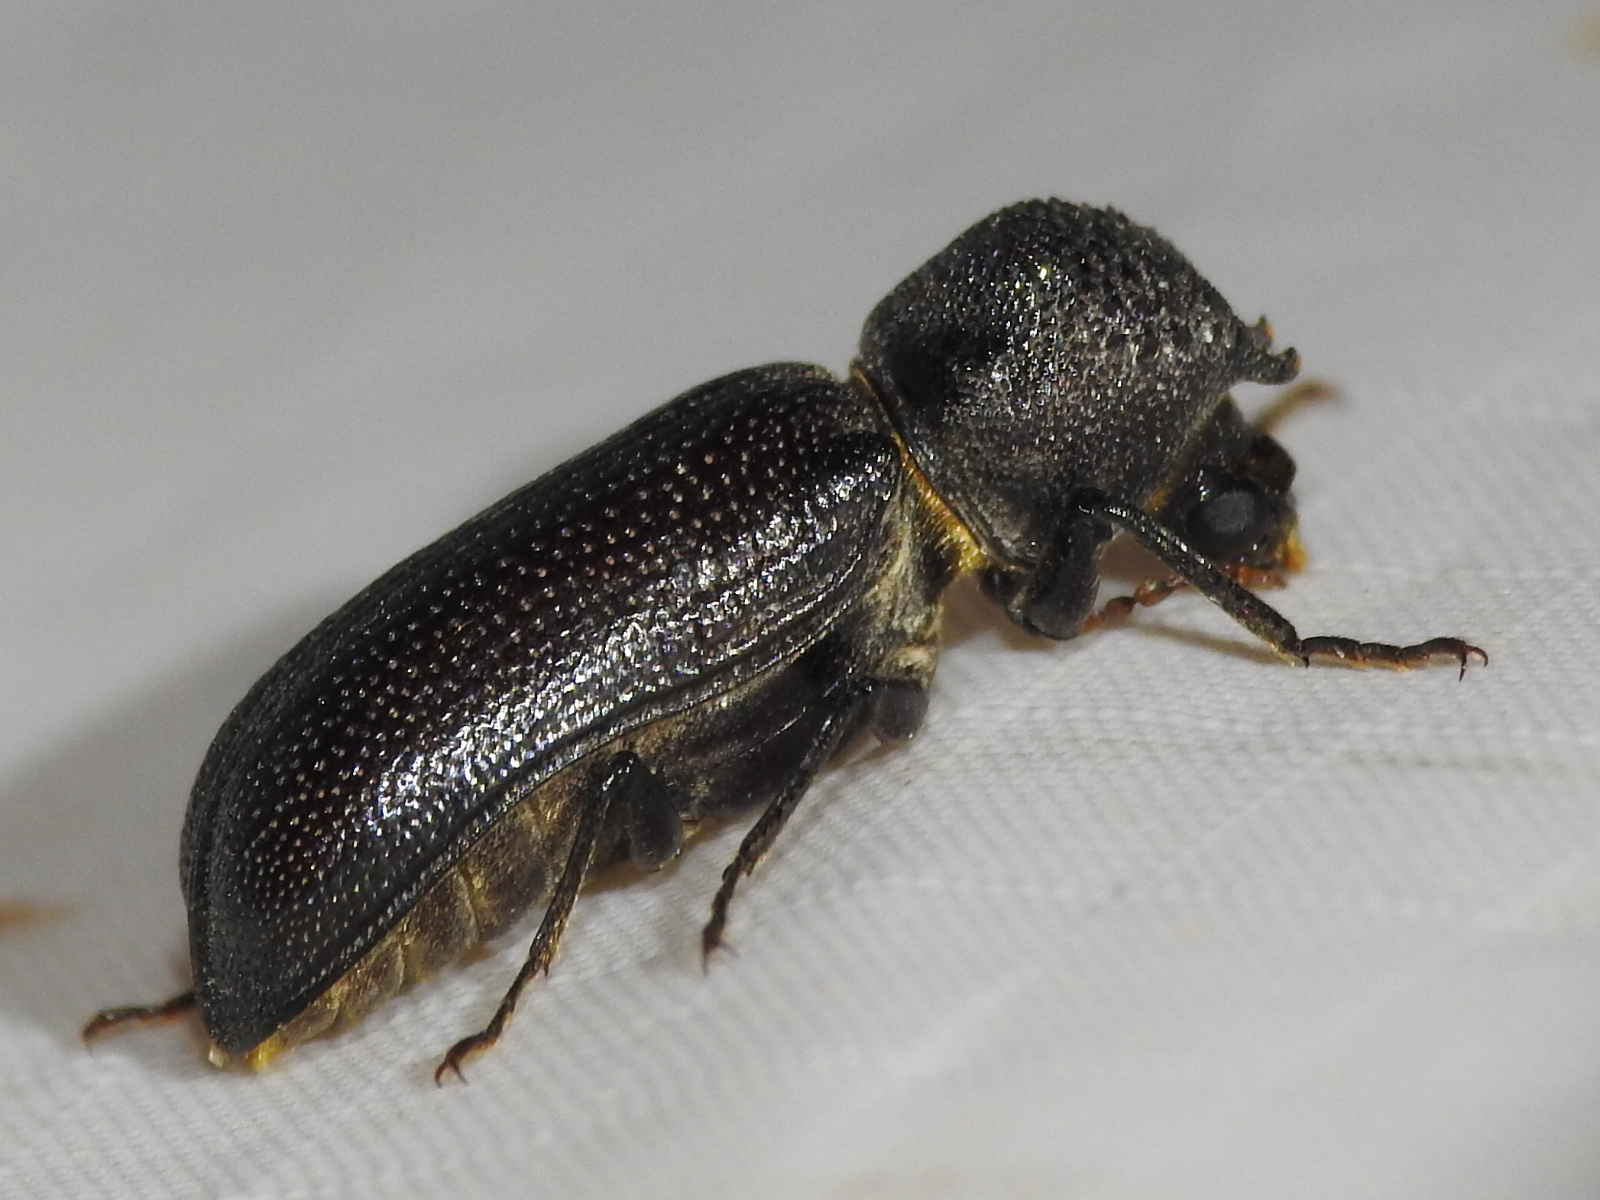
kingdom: Animalia
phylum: Arthropoda
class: Insecta
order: Coleoptera
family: Bostrichidae
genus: Apatides
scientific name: Apatides fortis
